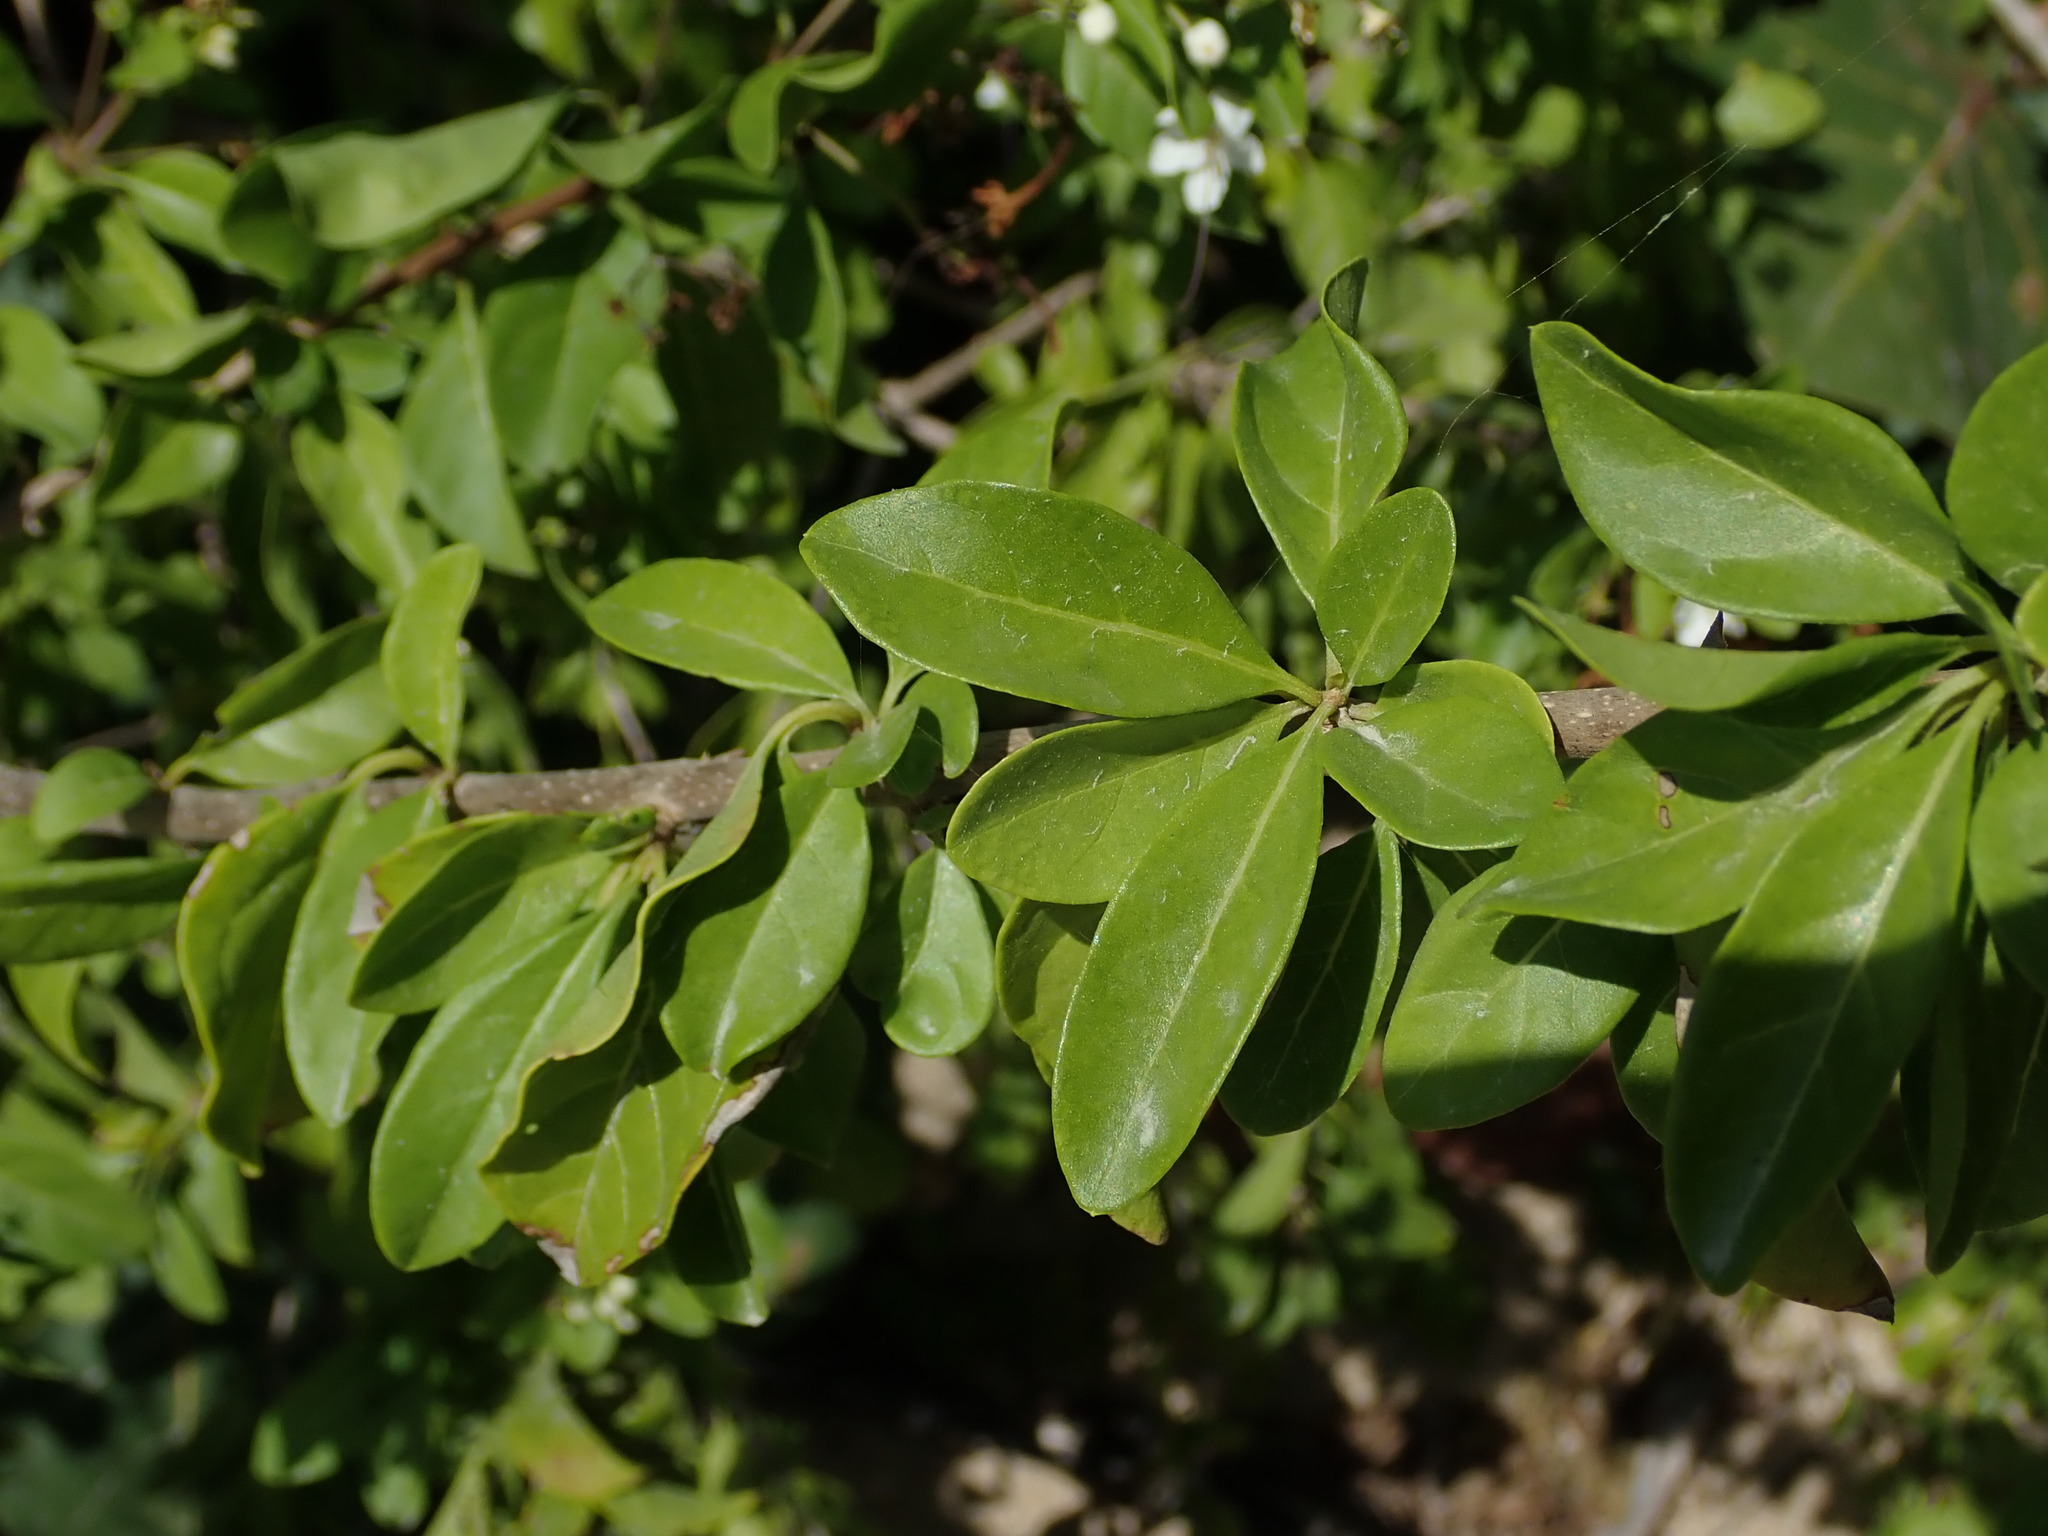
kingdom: Plantae
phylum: Tracheophyta
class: Magnoliopsida
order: Lamiales
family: Lamiaceae
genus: Volkameria
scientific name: Volkameria aculeata
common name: Prickly myrtle
